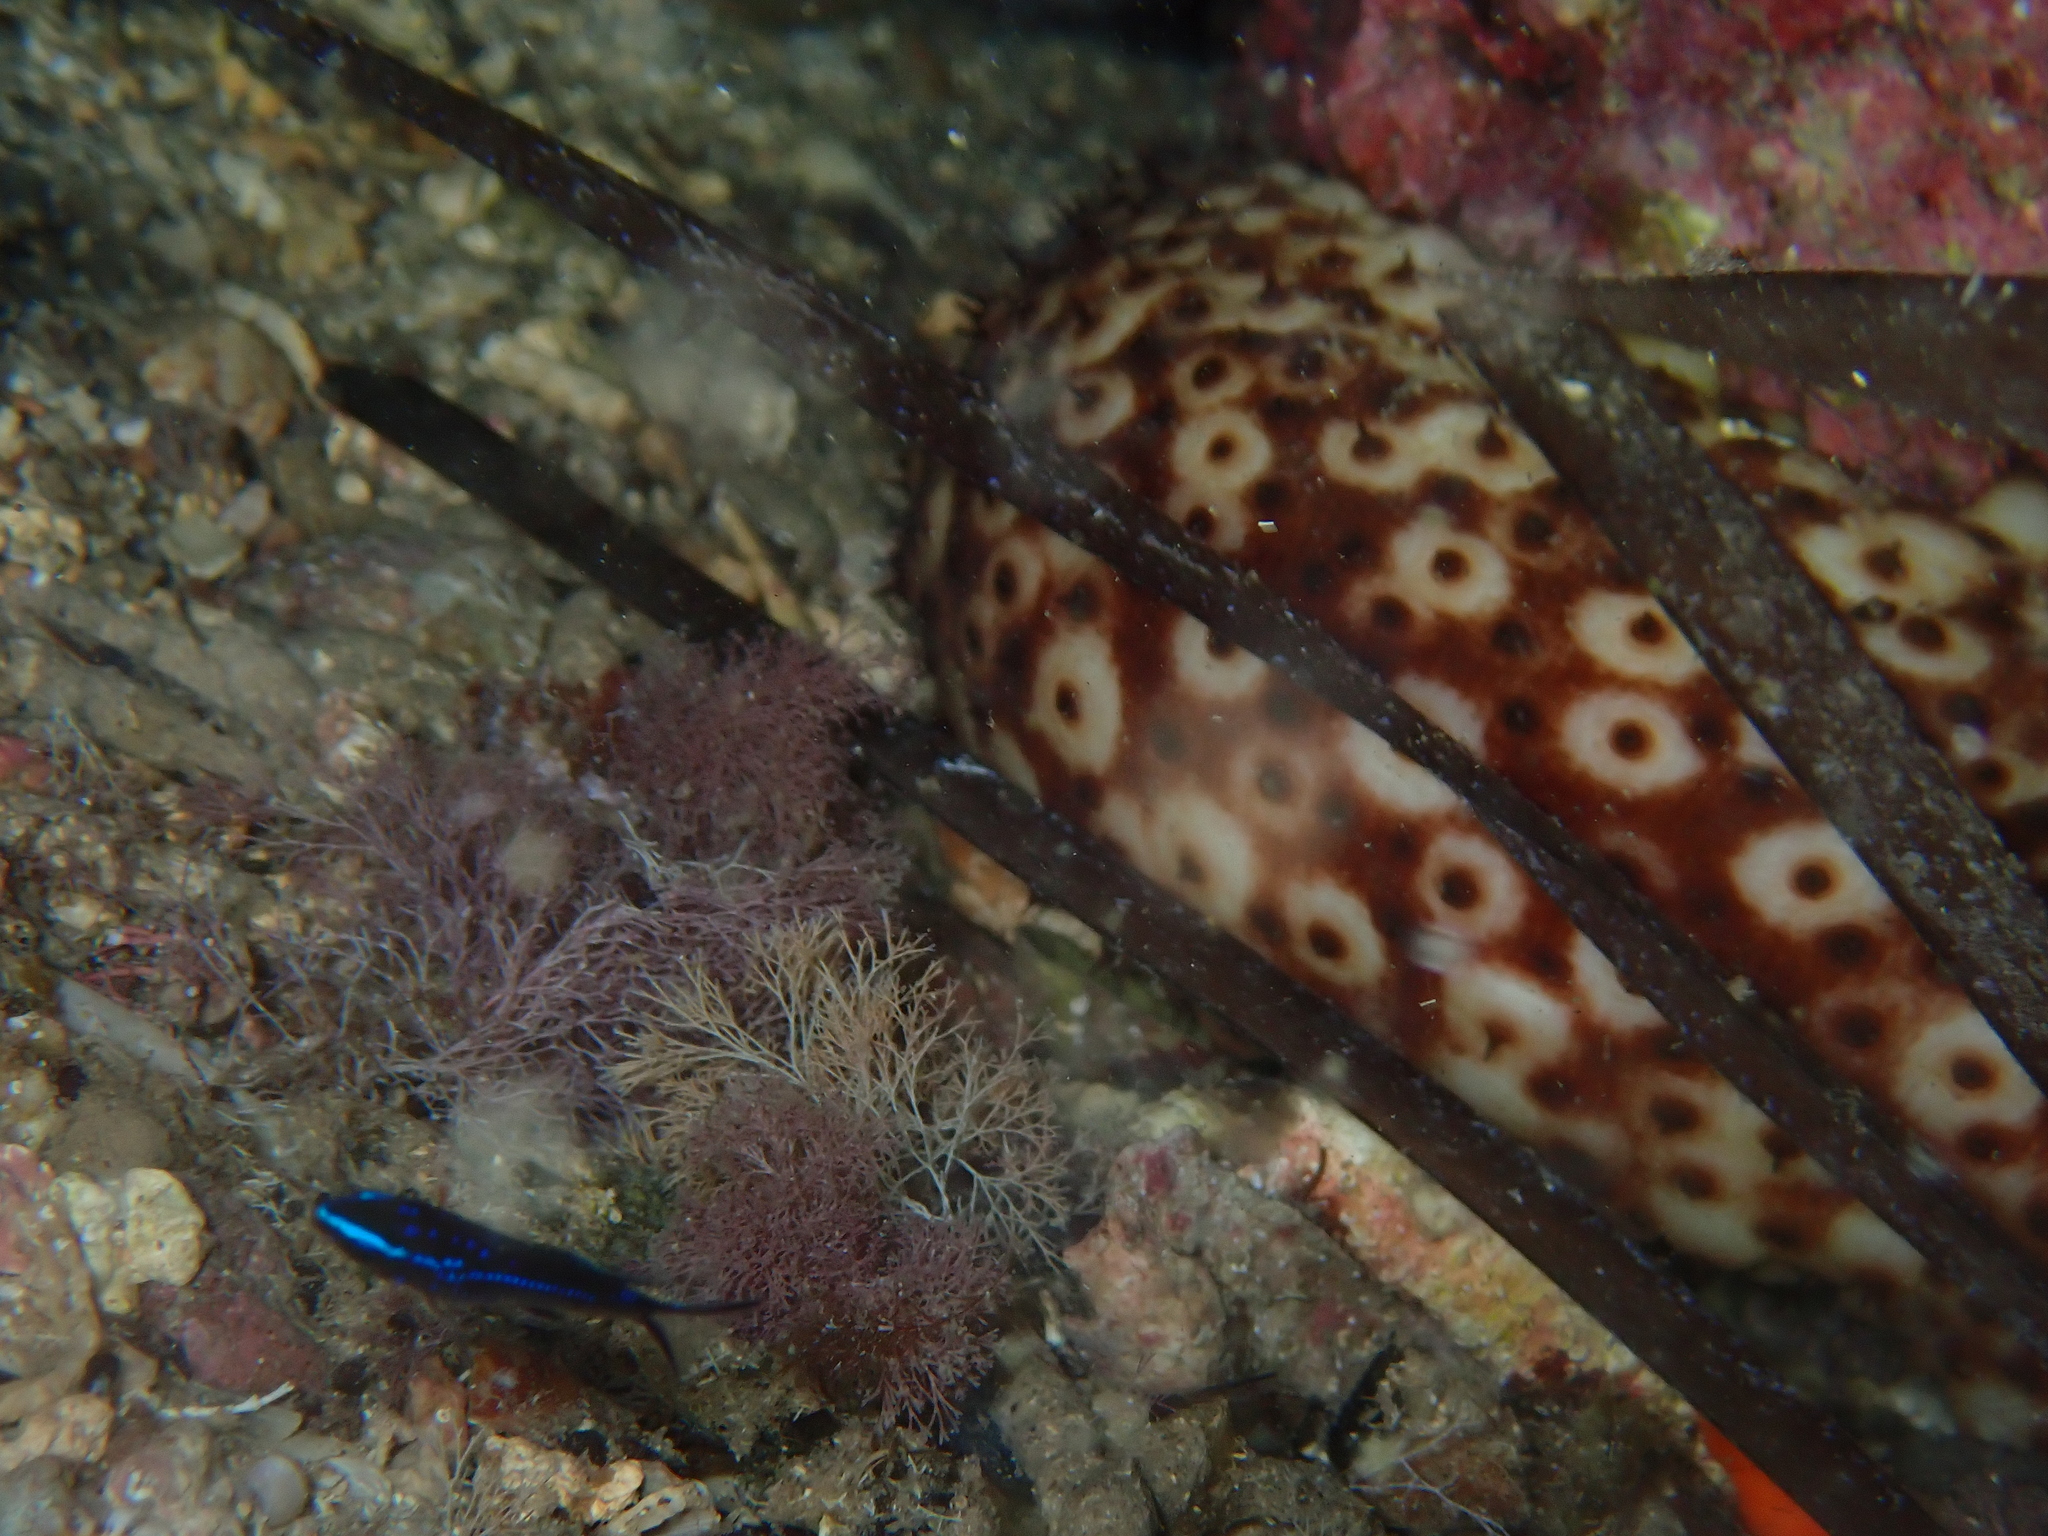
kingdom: Animalia
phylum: Chordata
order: Perciformes
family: Pomacentridae
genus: Chromis
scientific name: Chromis chromis
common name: Damselfish
